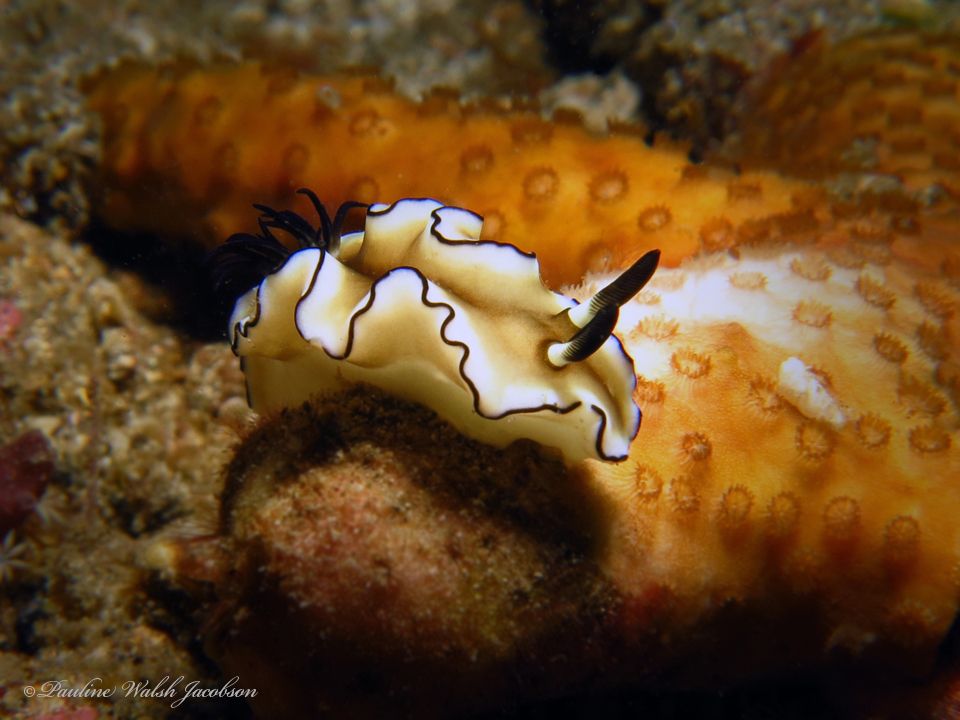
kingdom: Animalia
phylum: Mollusca
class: Gastropoda
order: Nudibranchia
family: Chromodorididae
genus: Doriprismatica
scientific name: Doriprismatica atromarginata
